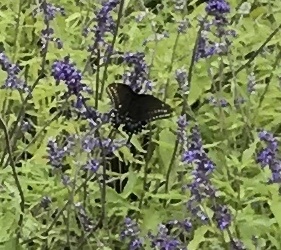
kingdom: Animalia
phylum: Arthropoda
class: Insecta
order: Lepidoptera
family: Papilionidae
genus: Papilio
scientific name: Papilio polyxenes
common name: Black swallowtail
